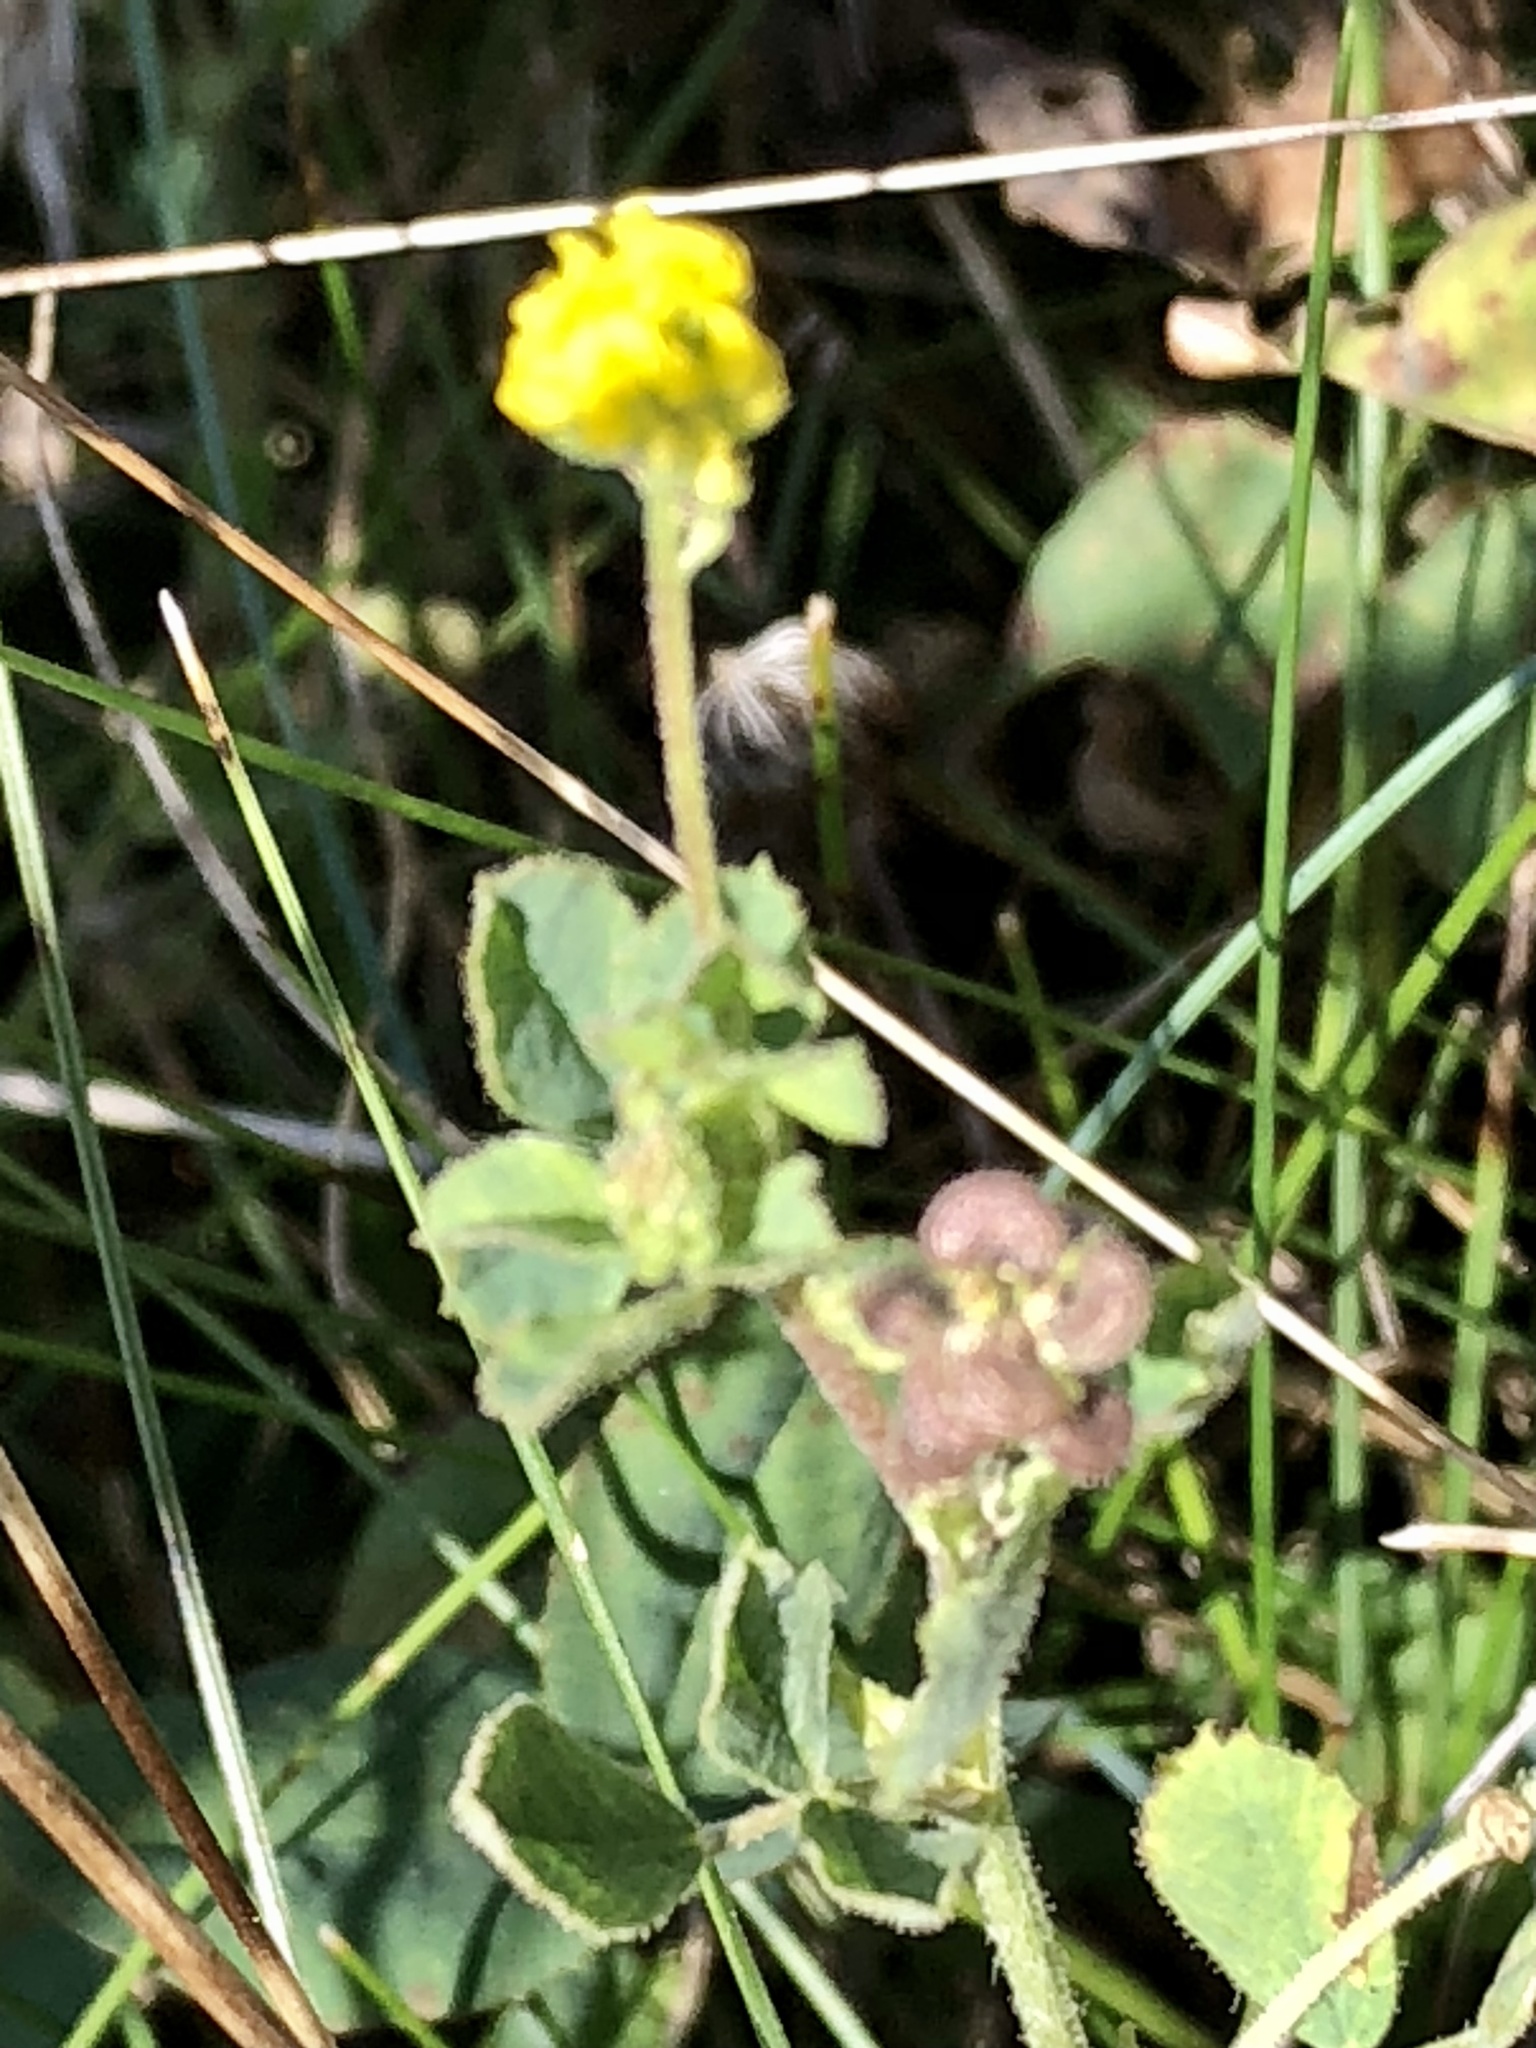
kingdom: Plantae
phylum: Tracheophyta
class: Magnoliopsida
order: Fabales
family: Fabaceae
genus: Medicago
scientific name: Medicago lupulina
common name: Black medick
